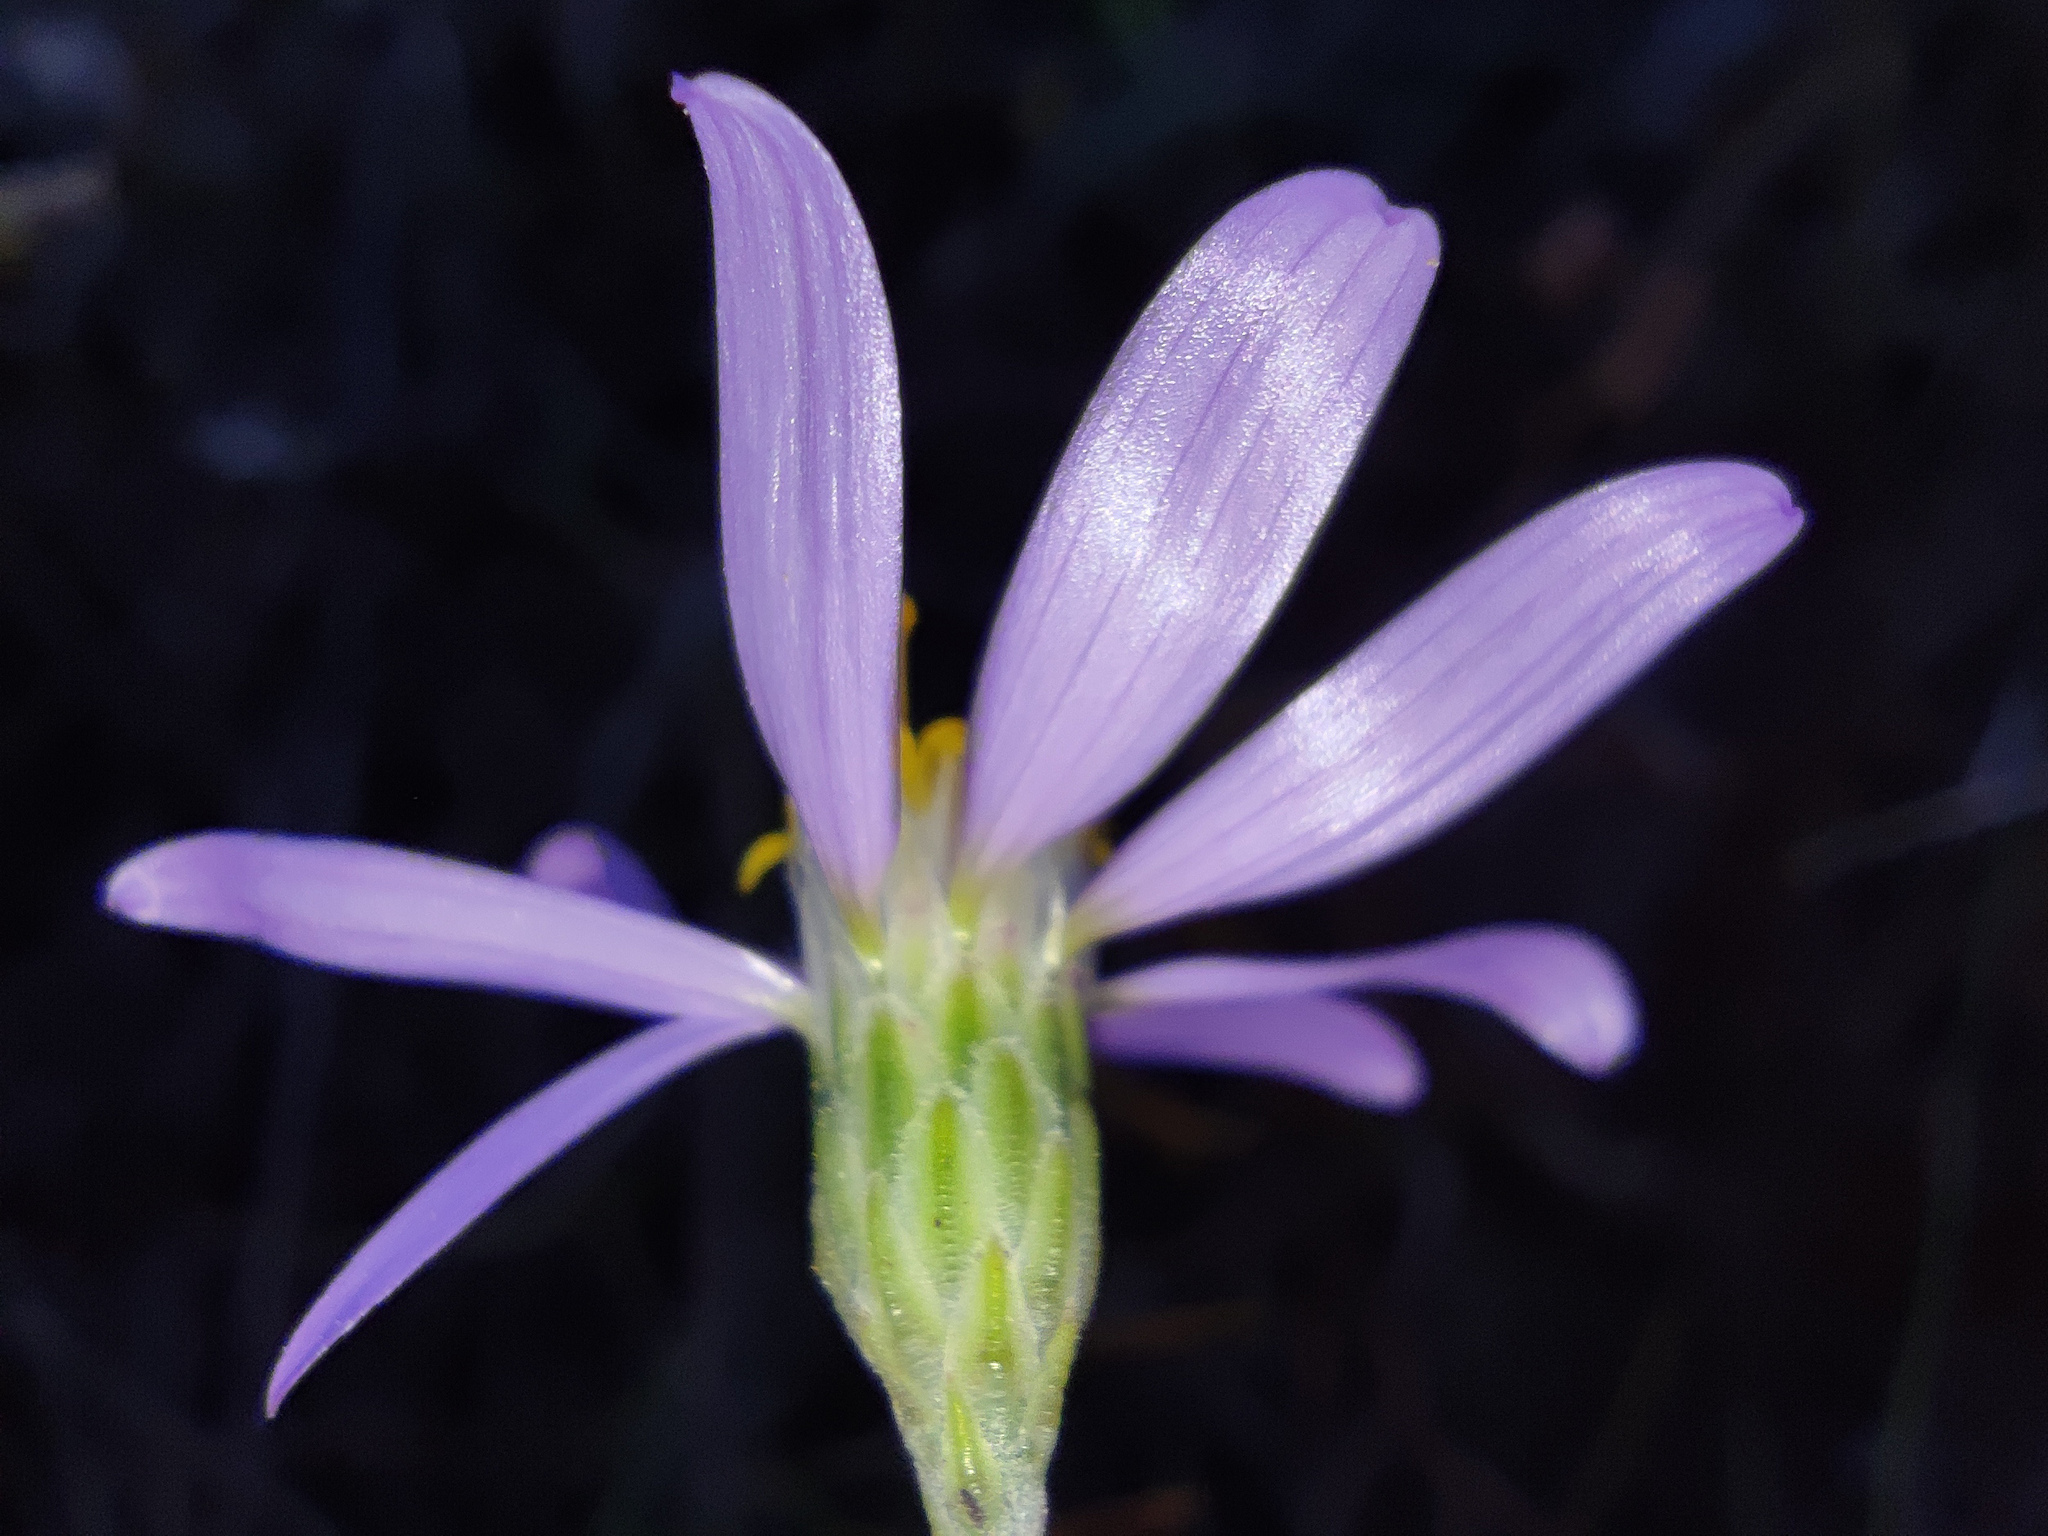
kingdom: Plantae
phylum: Tracheophyta
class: Magnoliopsida
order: Asterales
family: Asteraceae
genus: Galatella
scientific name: Galatella angustissima
